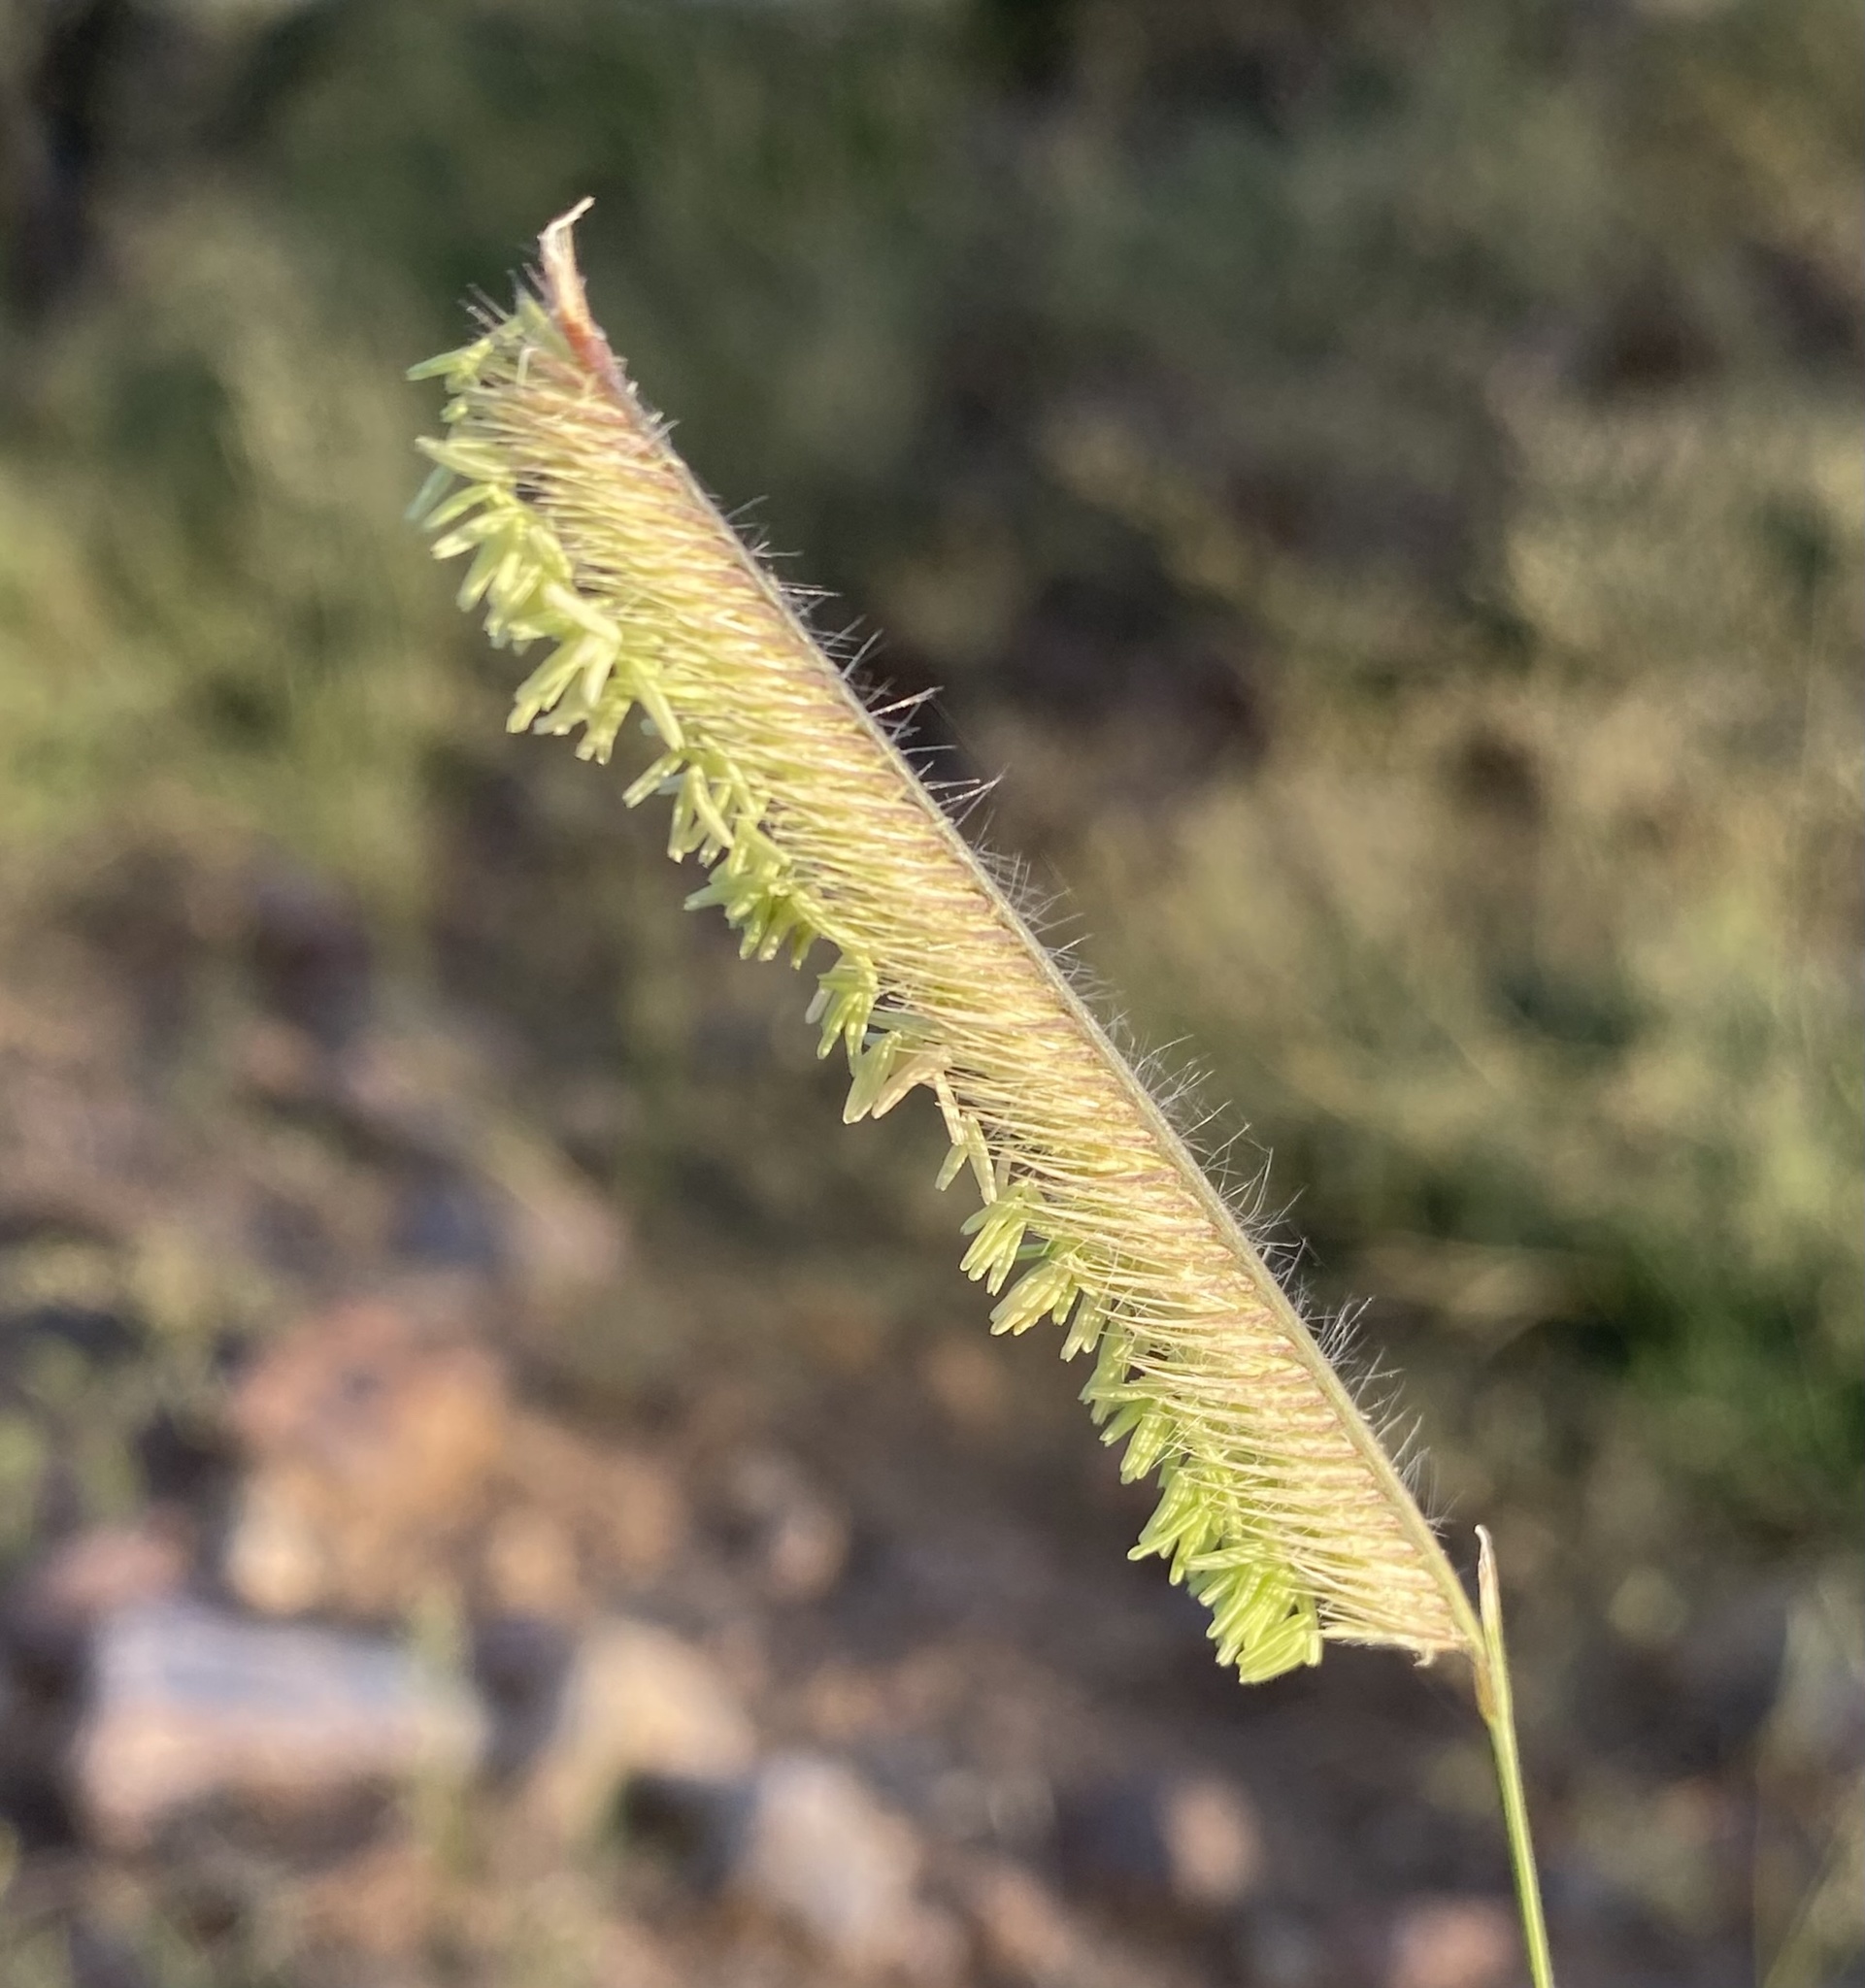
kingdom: Plantae
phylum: Tracheophyta
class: Liliopsida
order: Poales
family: Poaceae
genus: Bouteloua
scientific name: Bouteloua gracilis
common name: Blue grama
